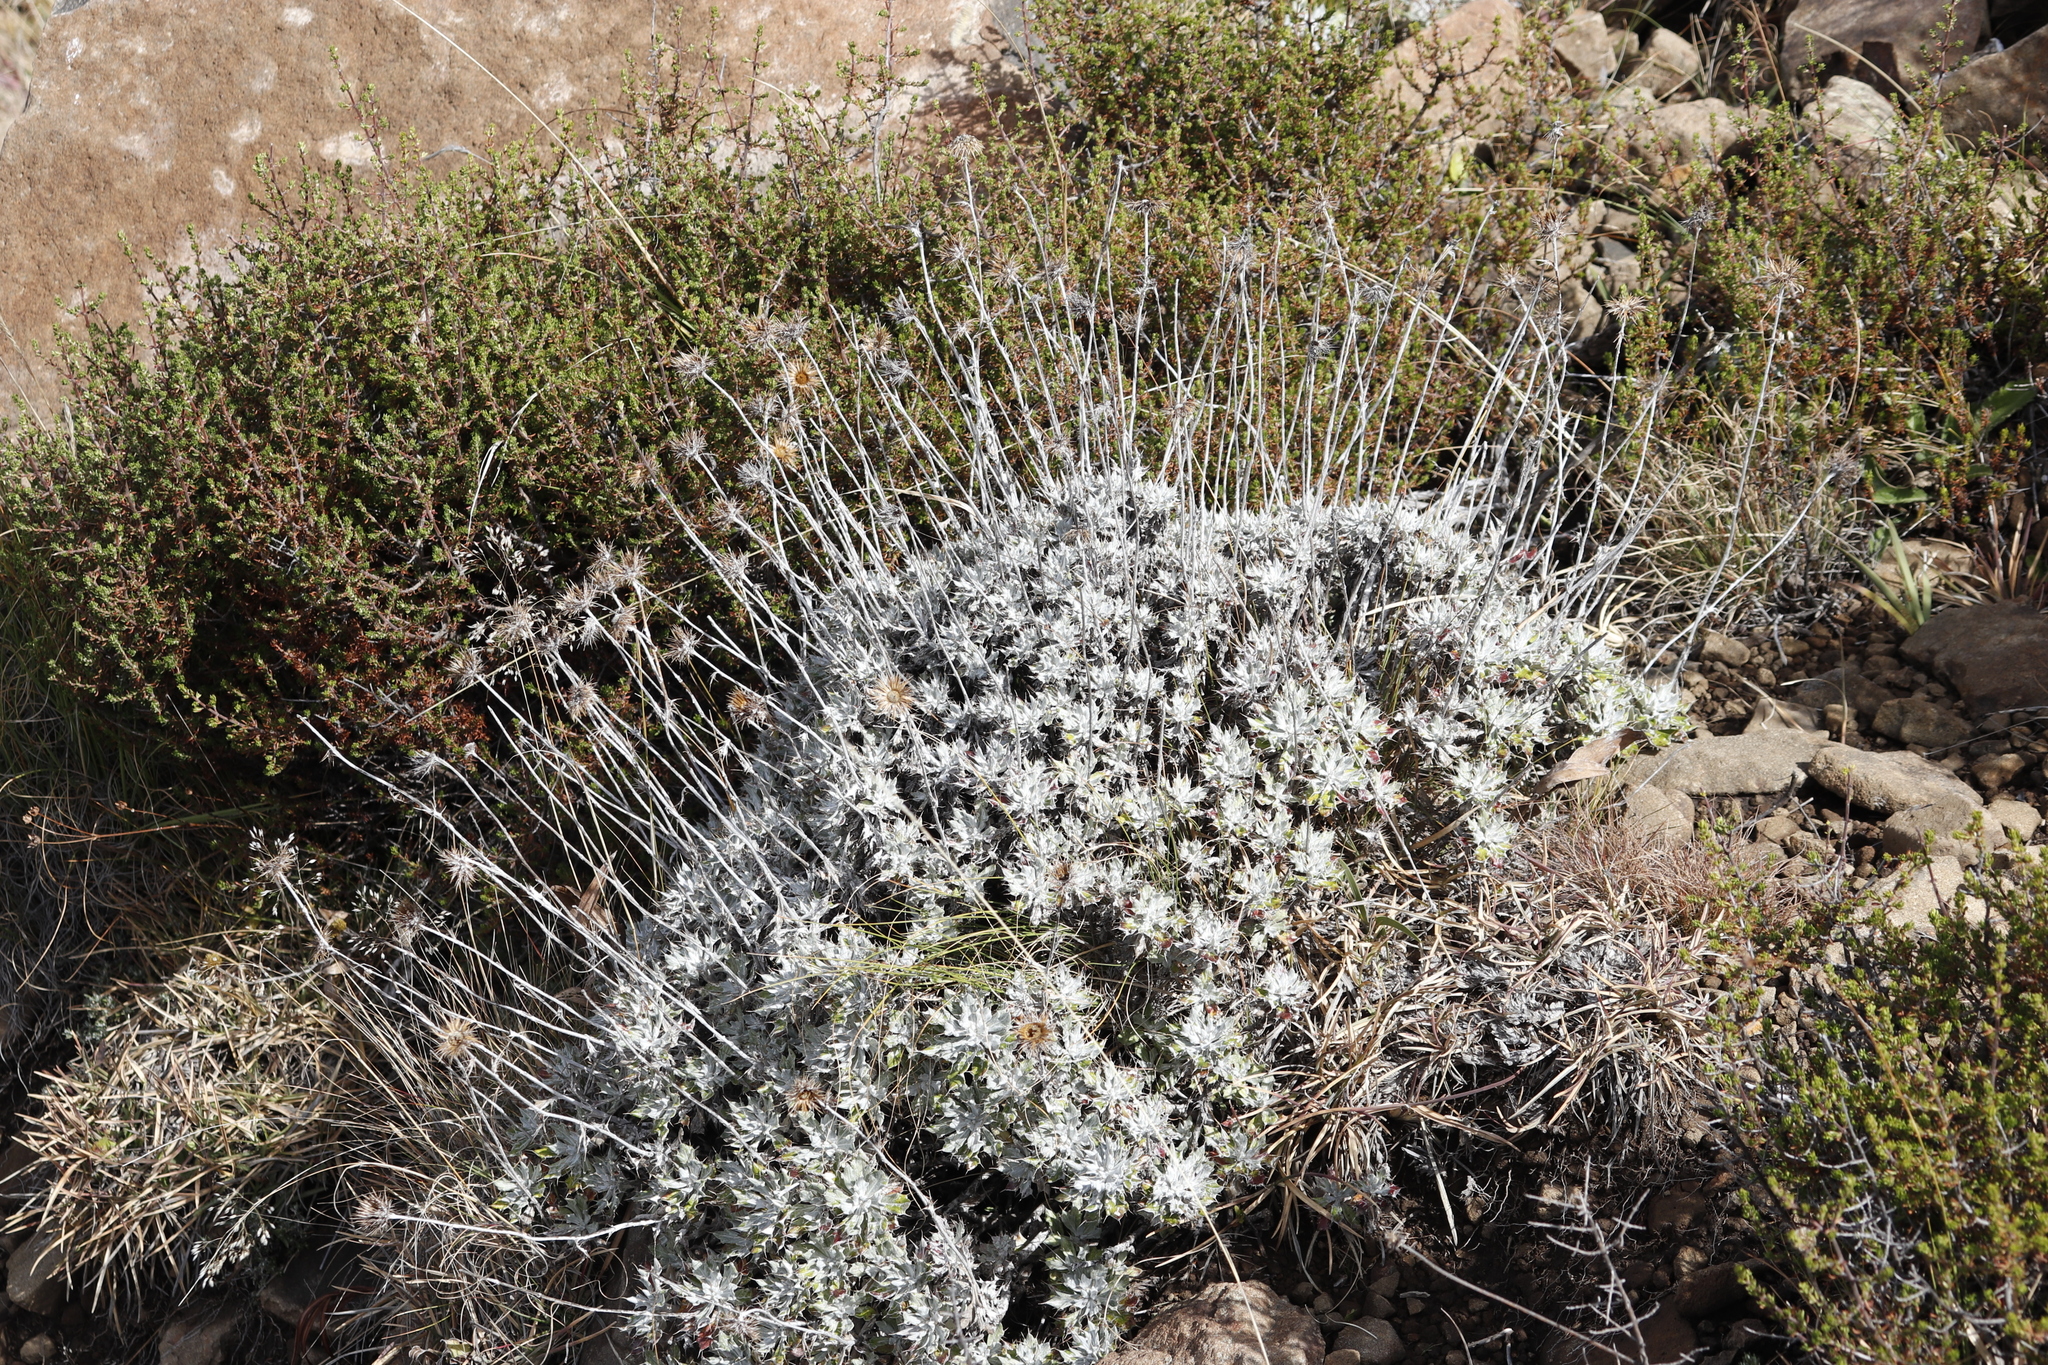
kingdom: Plantae
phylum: Tracheophyta
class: Magnoliopsida
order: Asterales
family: Asteraceae
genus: Berkheya
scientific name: Berkheya rosulata
